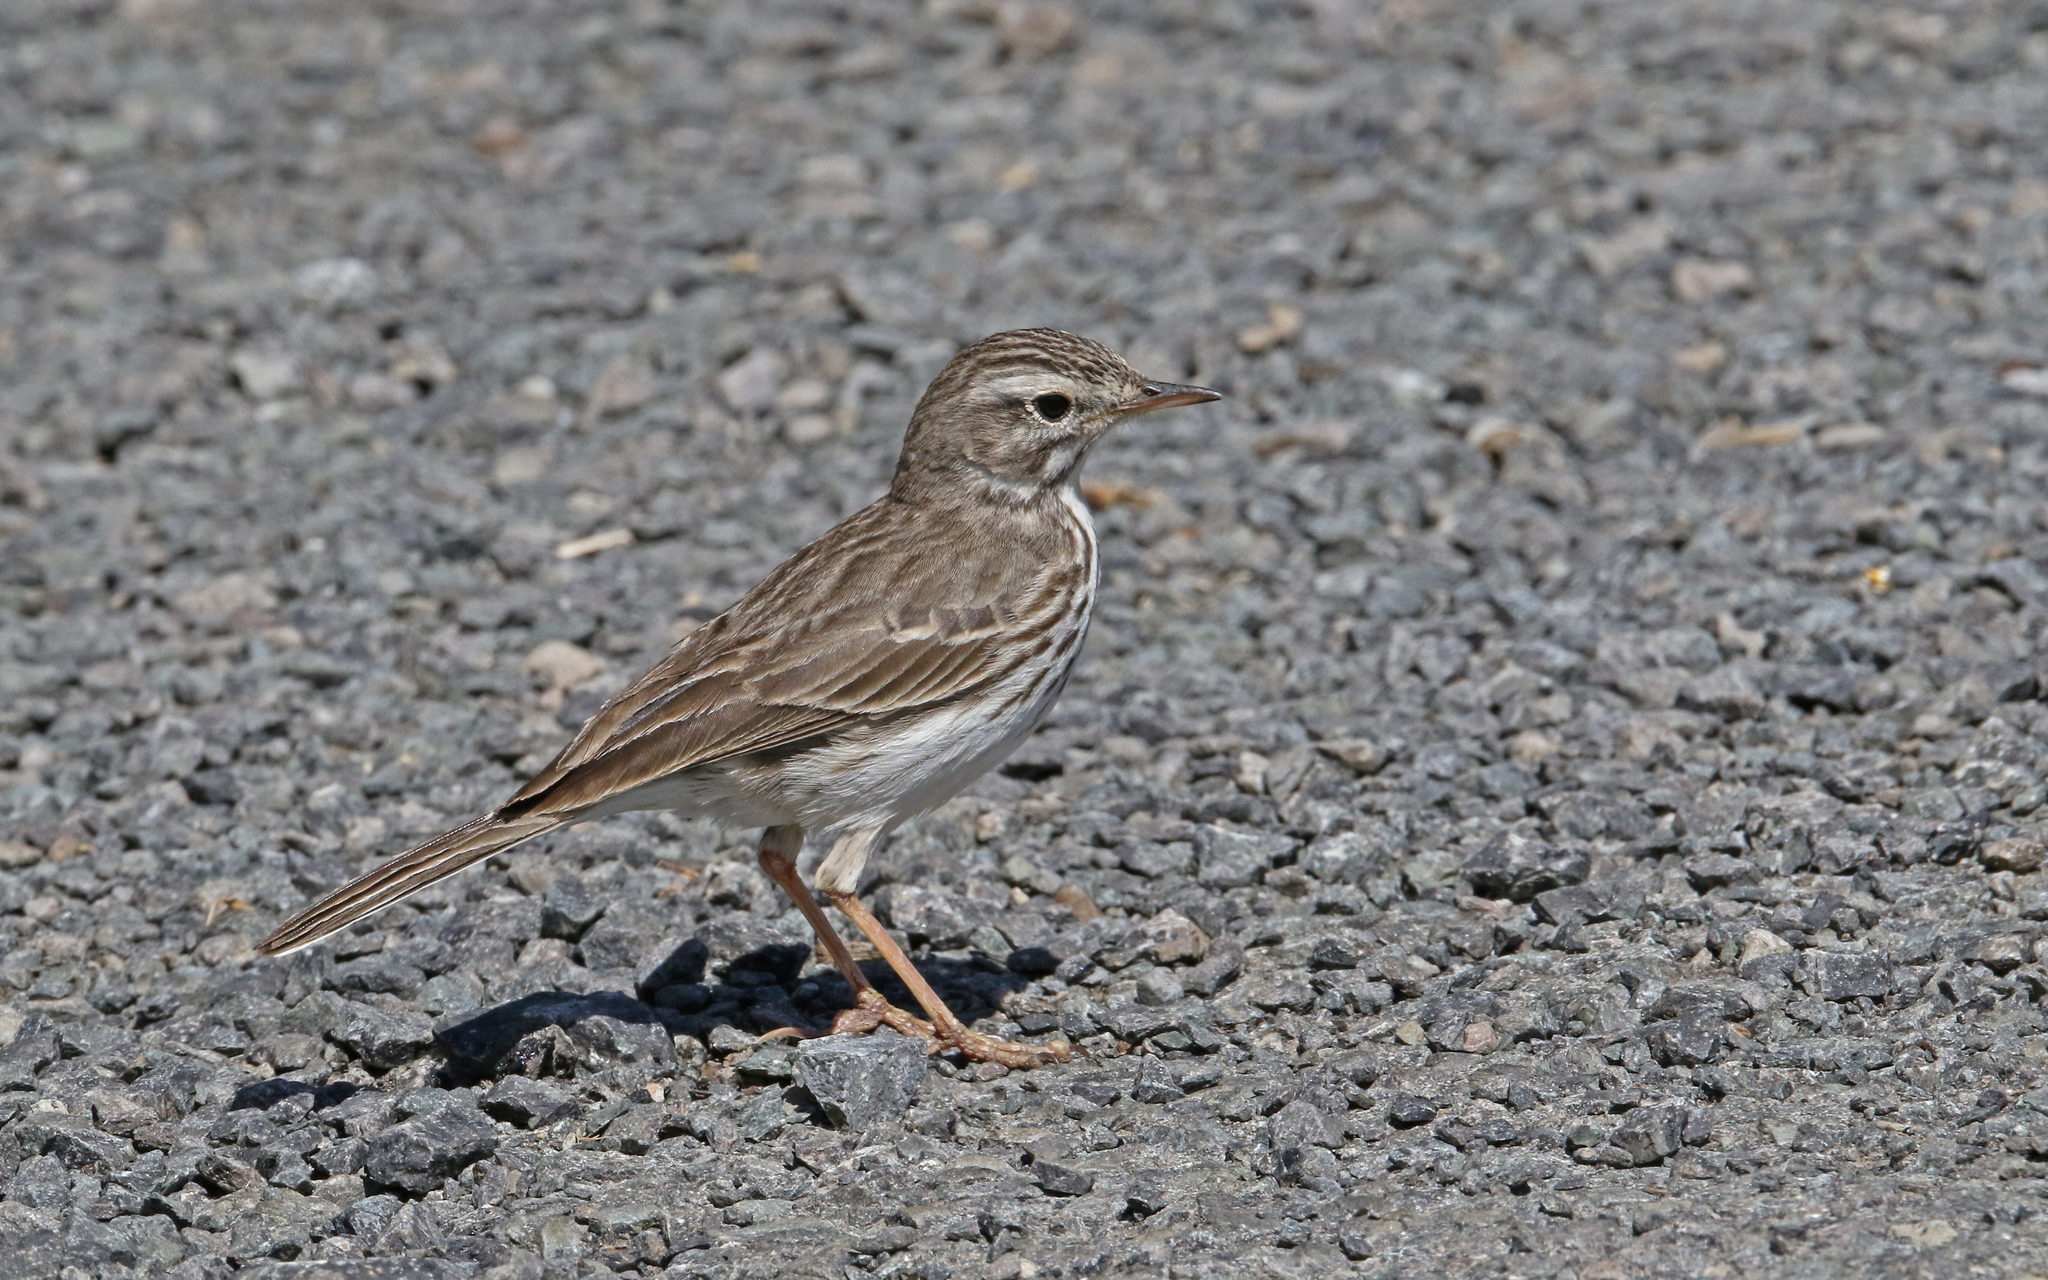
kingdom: Animalia
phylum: Chordata
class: Aves
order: Passeriformes
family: Motacillidae
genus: Anthus
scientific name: Anthus berthelotii
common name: Berthelot's pipit
